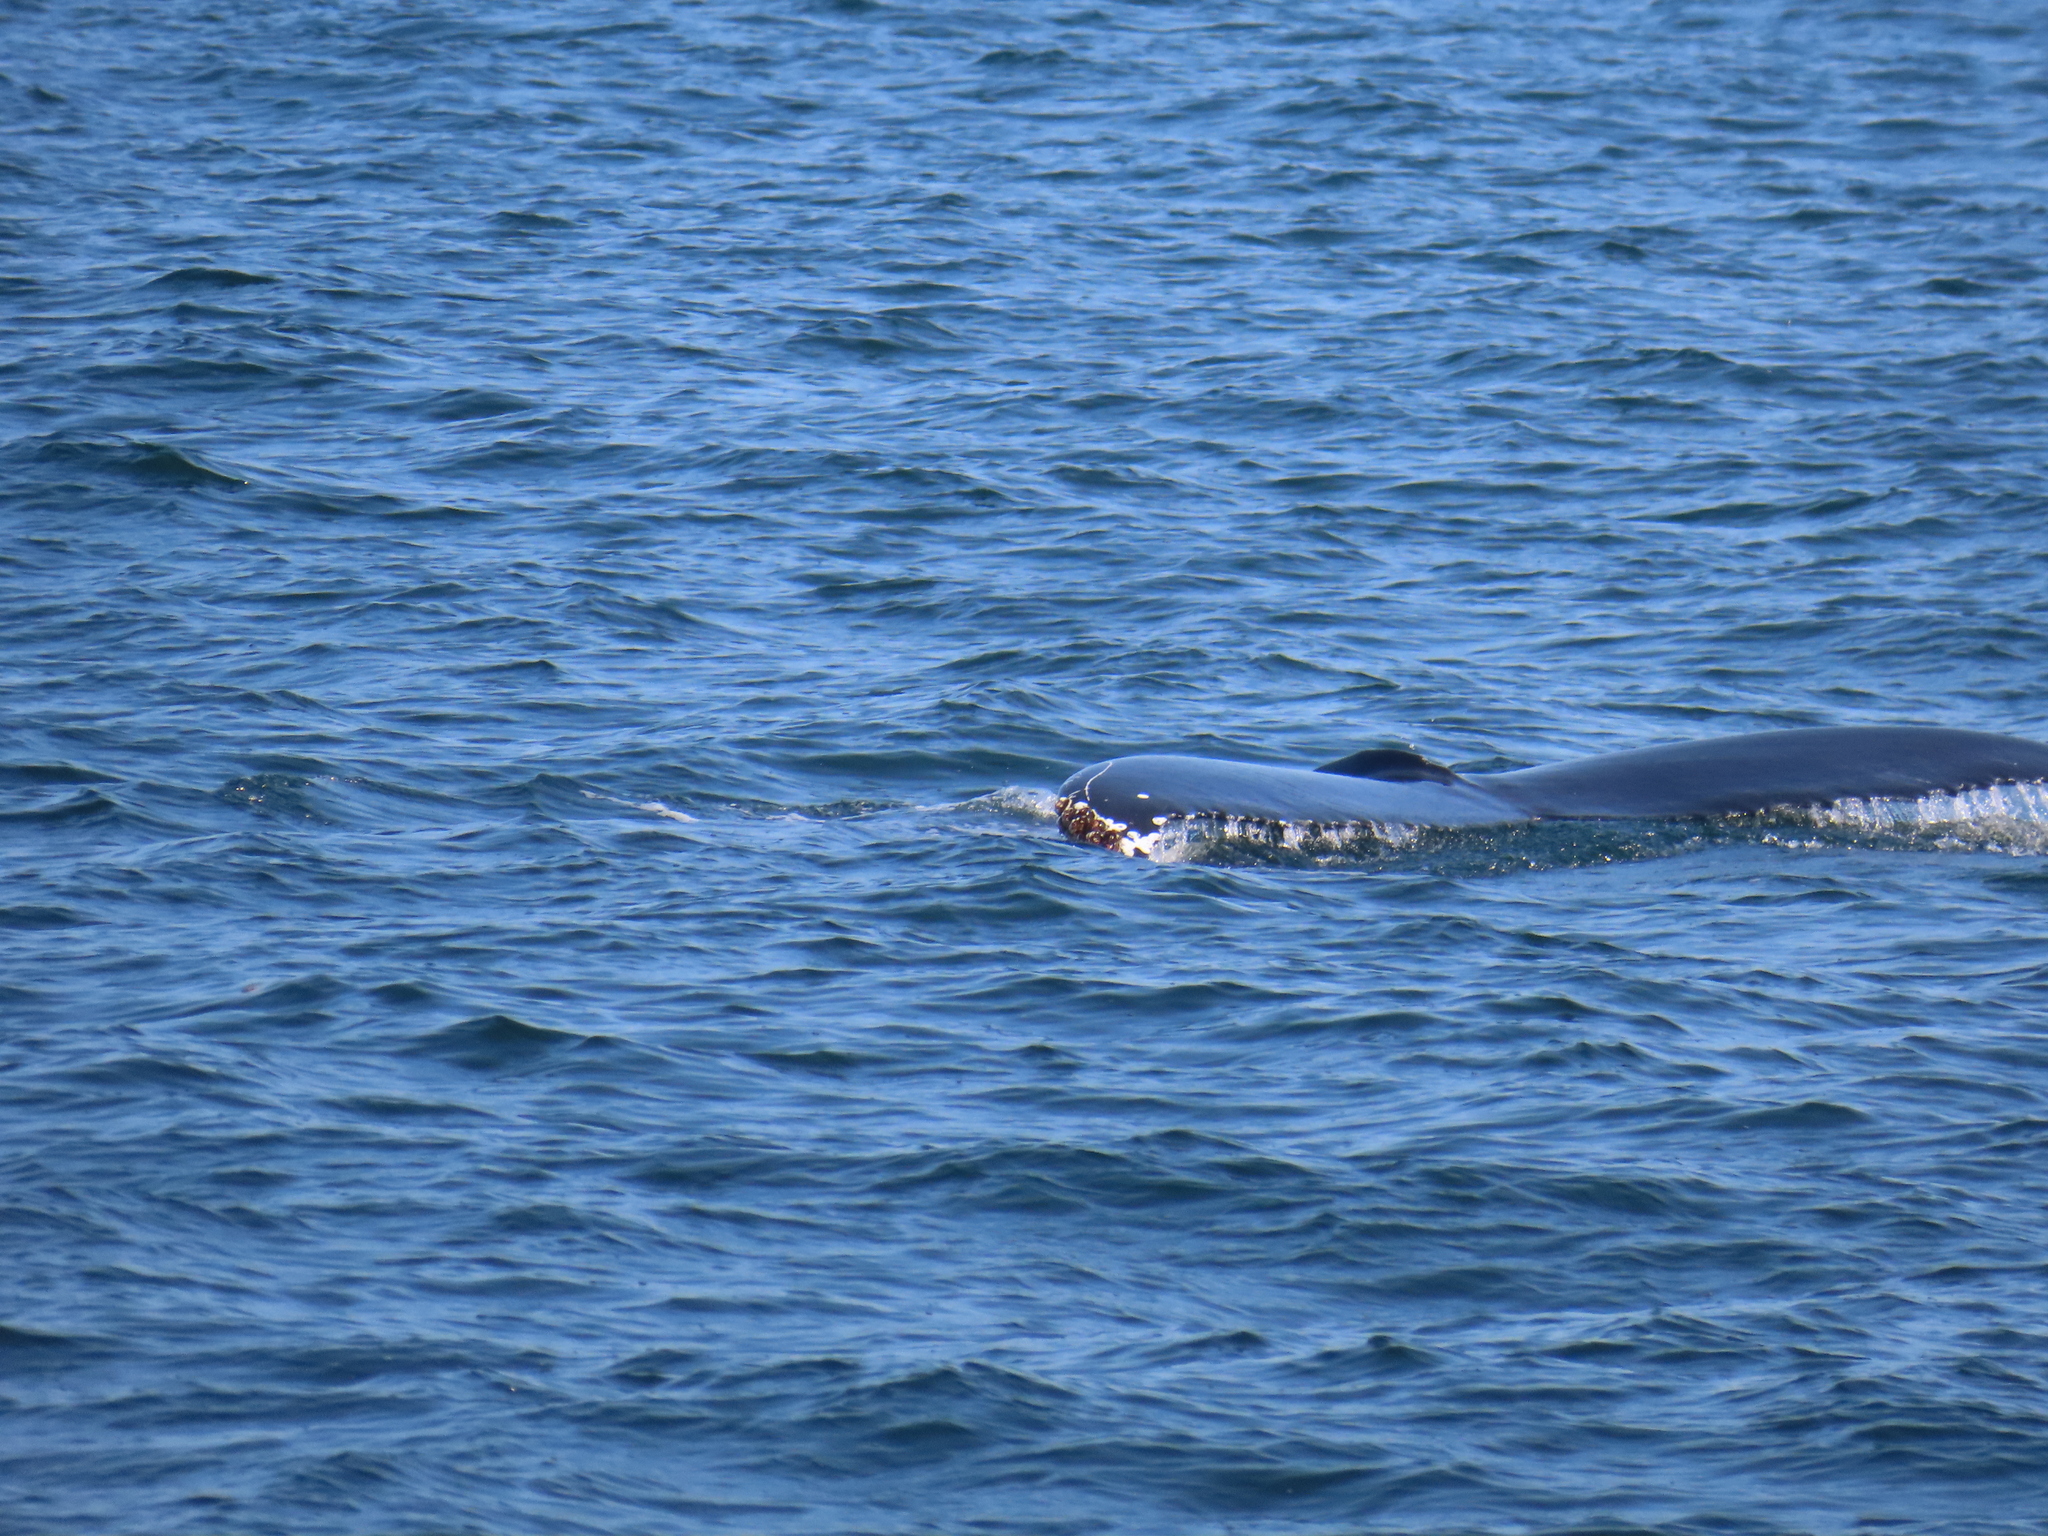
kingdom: Animalia
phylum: Arthropoda
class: Maxillopoda
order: Sessilia
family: Coronulidae
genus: Coronula
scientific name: Coronula diadema
